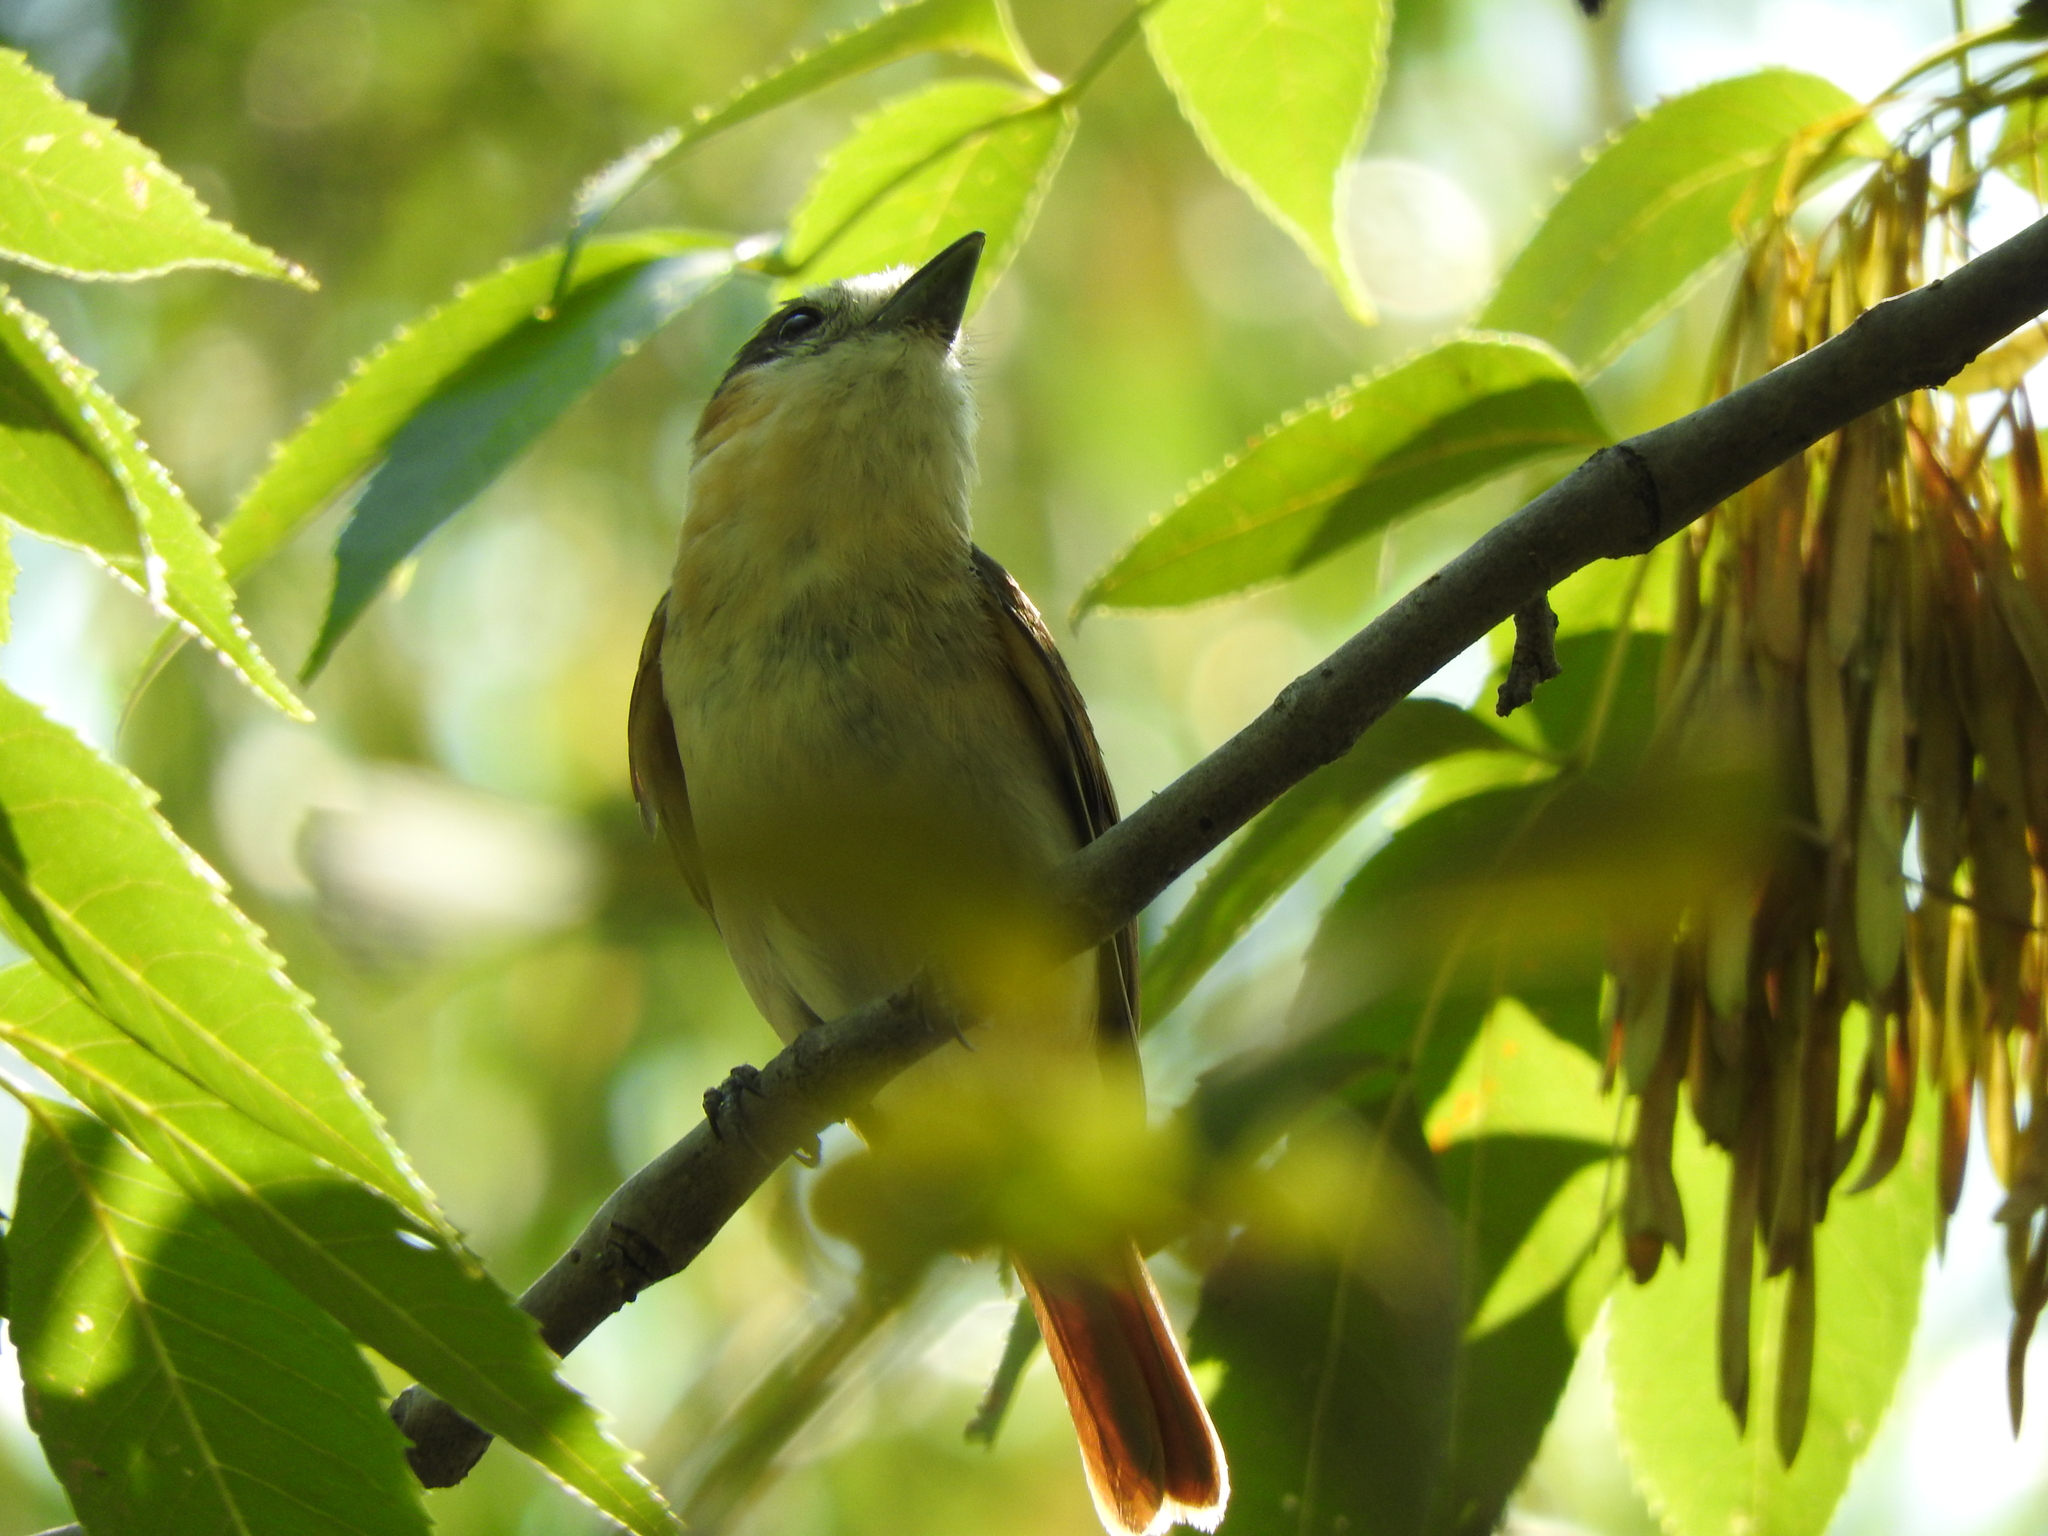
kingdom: Animalia
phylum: Chordata
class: Aves
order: Passeriformes
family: Cotingidae
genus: Pachyramphus
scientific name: Pachyramphus aglaiae
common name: Rose-throated becard
